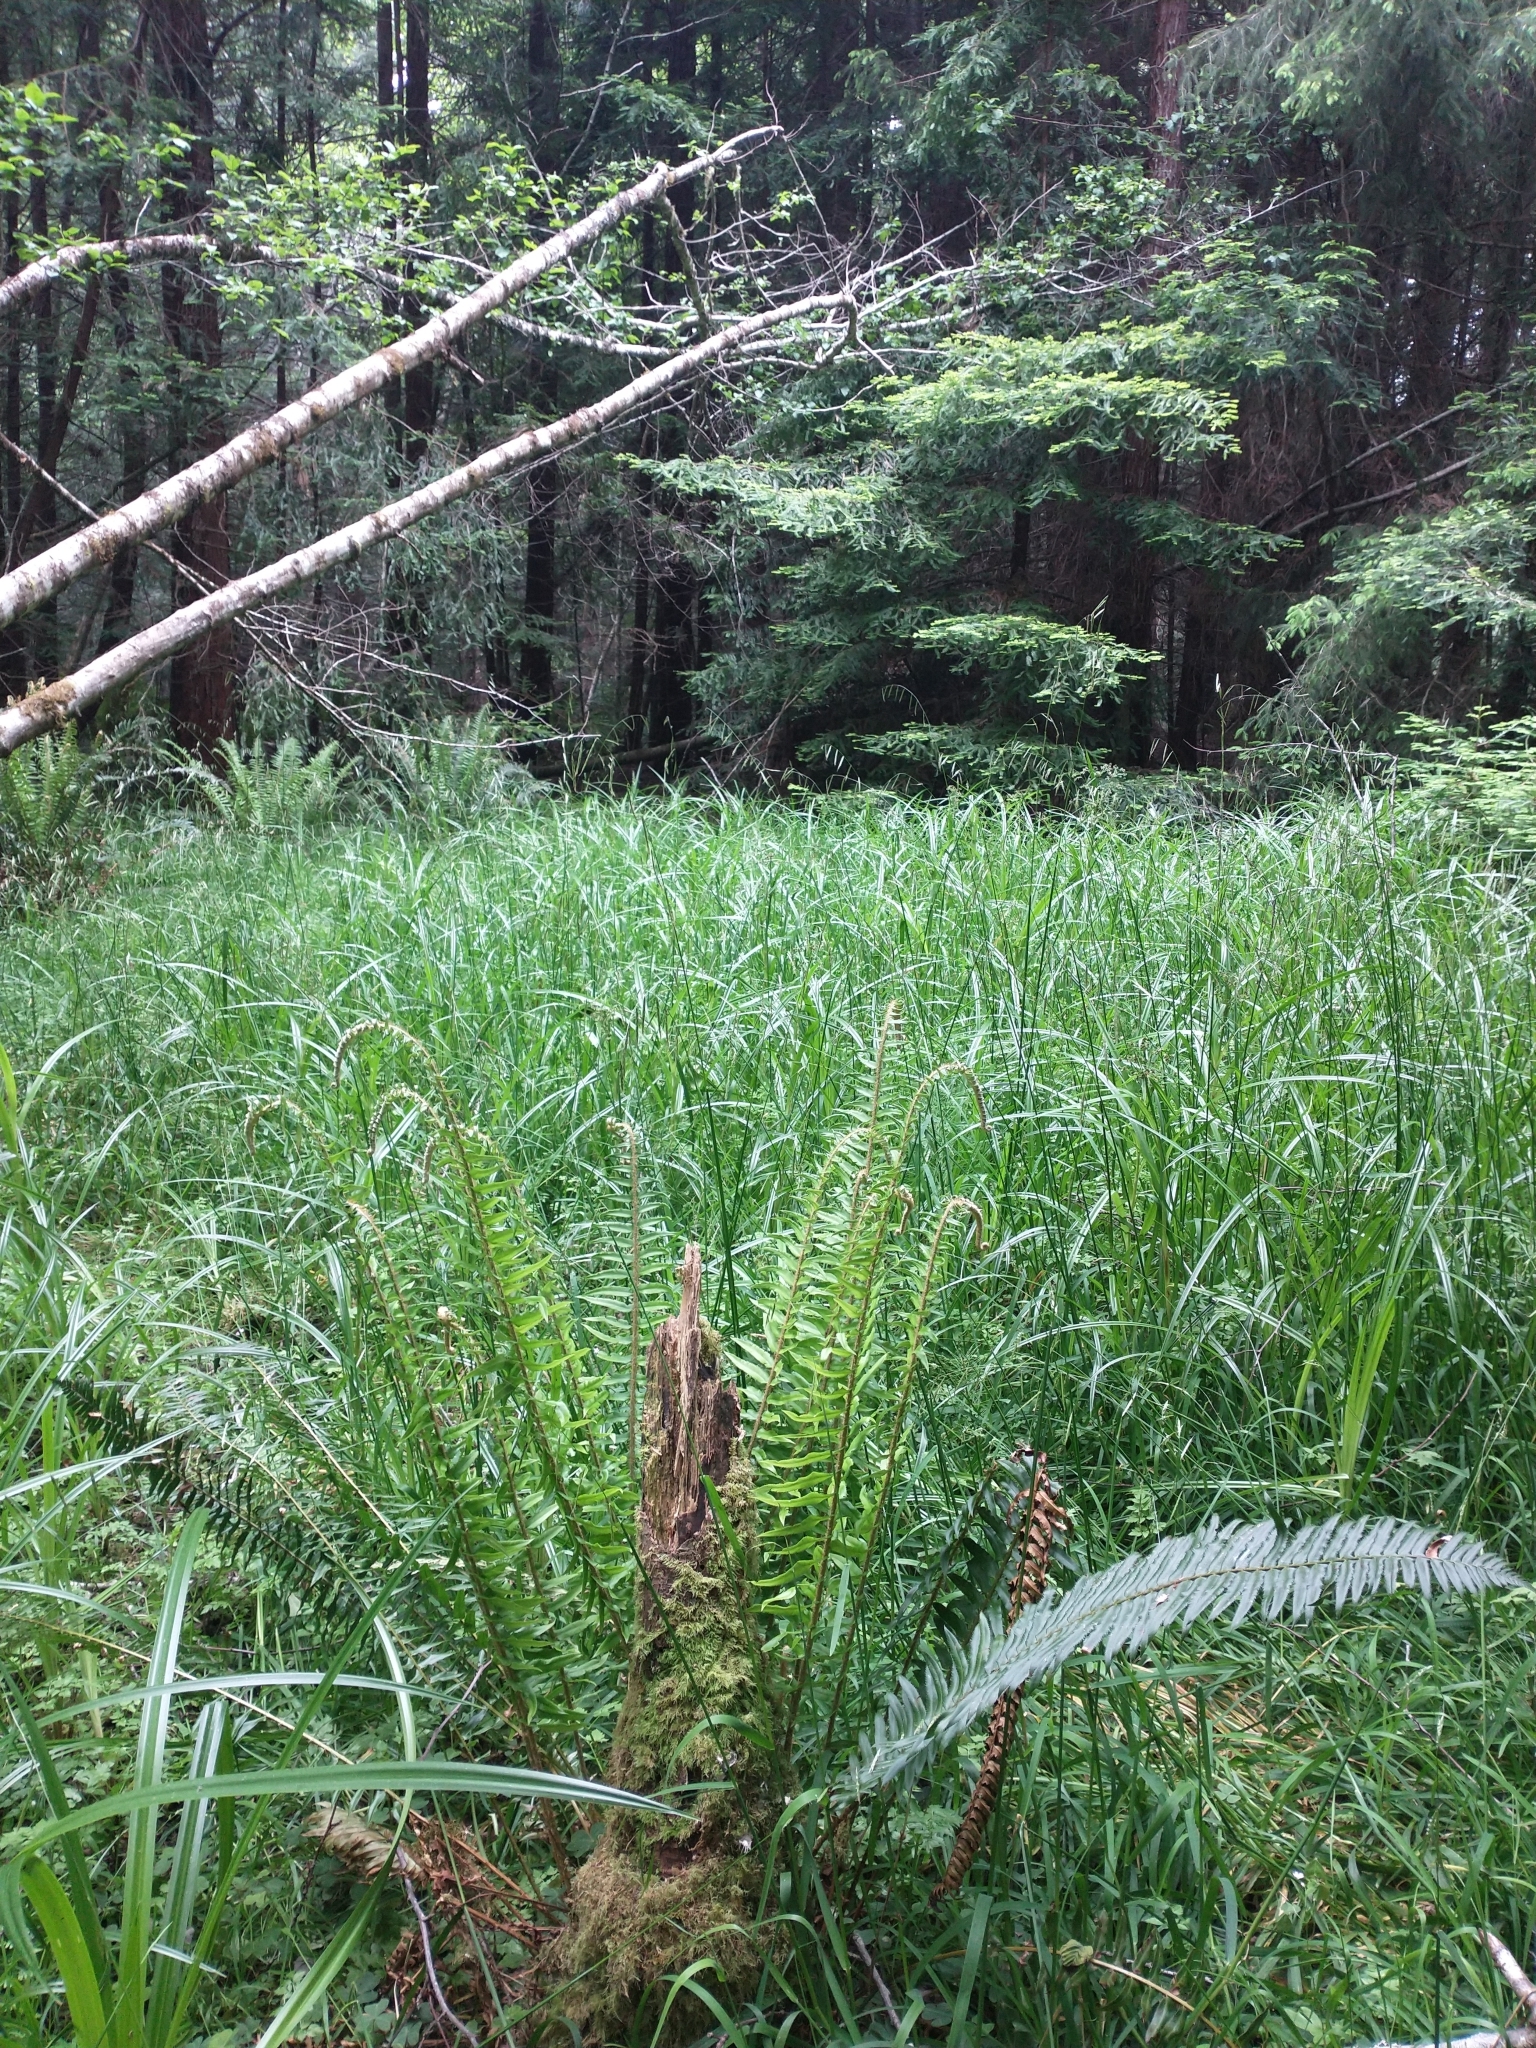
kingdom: Plantae
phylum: Tracheophyta
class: Polypodiopsida
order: Polypodiales
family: Dryopteridaceae
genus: Polystichum
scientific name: Polystichum munitum
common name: Western sword-fern
